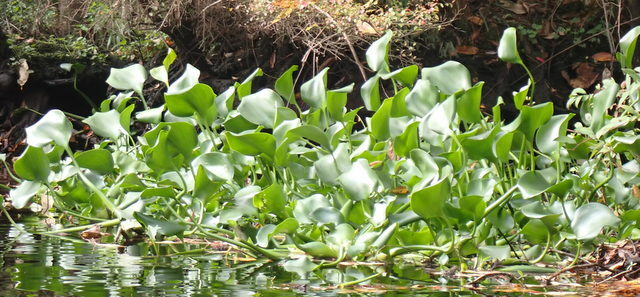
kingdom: Plantae
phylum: Tracheophyta
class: Liliopsida
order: Commelinales
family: Pontederiaceae
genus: Pontederia
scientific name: Pontederia crassipes
